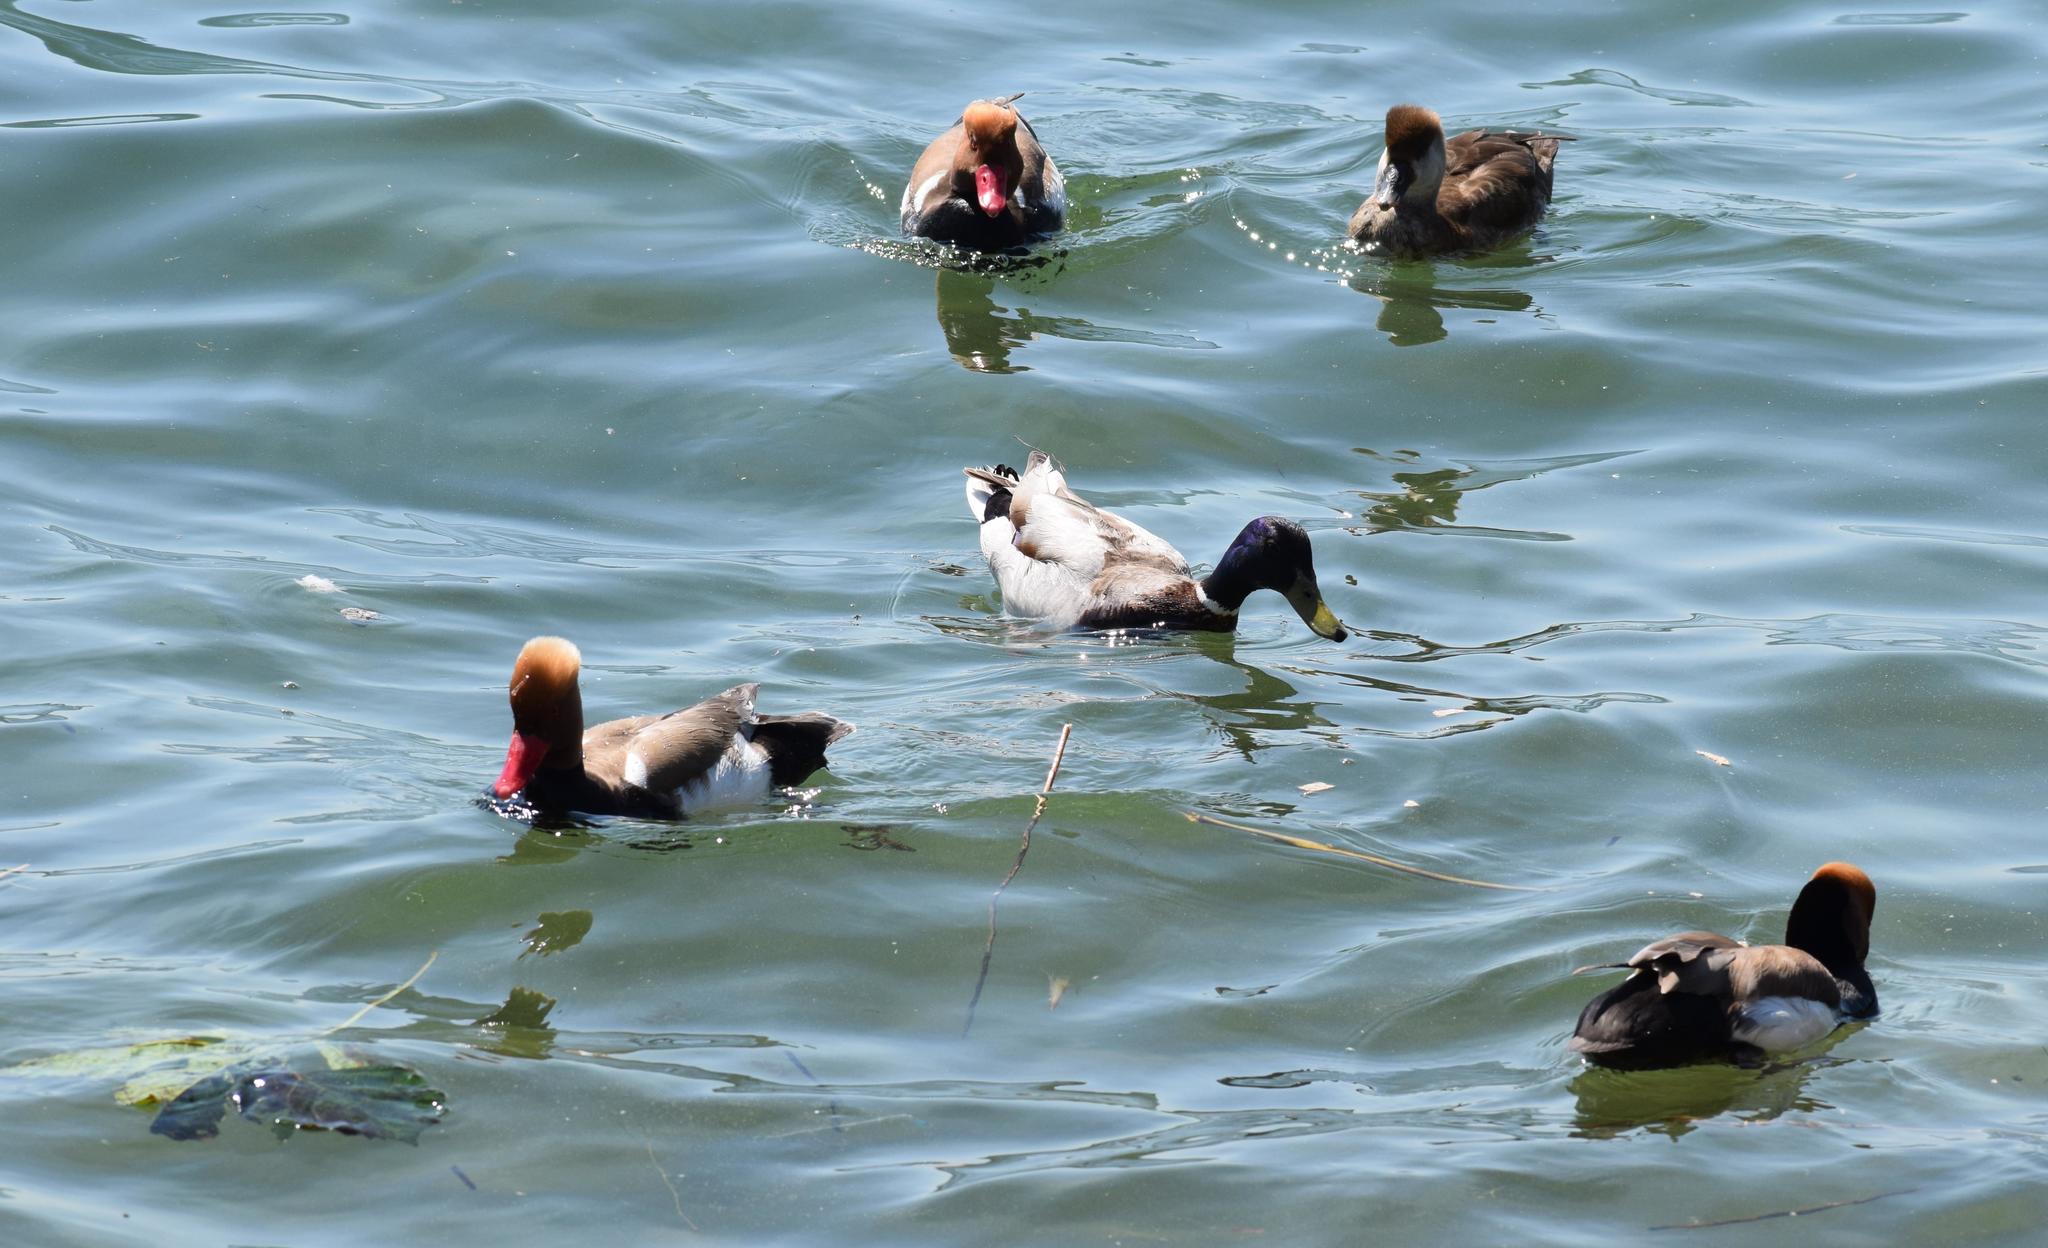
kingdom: Animalia
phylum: Chordata
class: Aves
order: Anseriformes
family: Anatidae
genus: Netta
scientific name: Netta rufina
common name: Red-crested pochard
